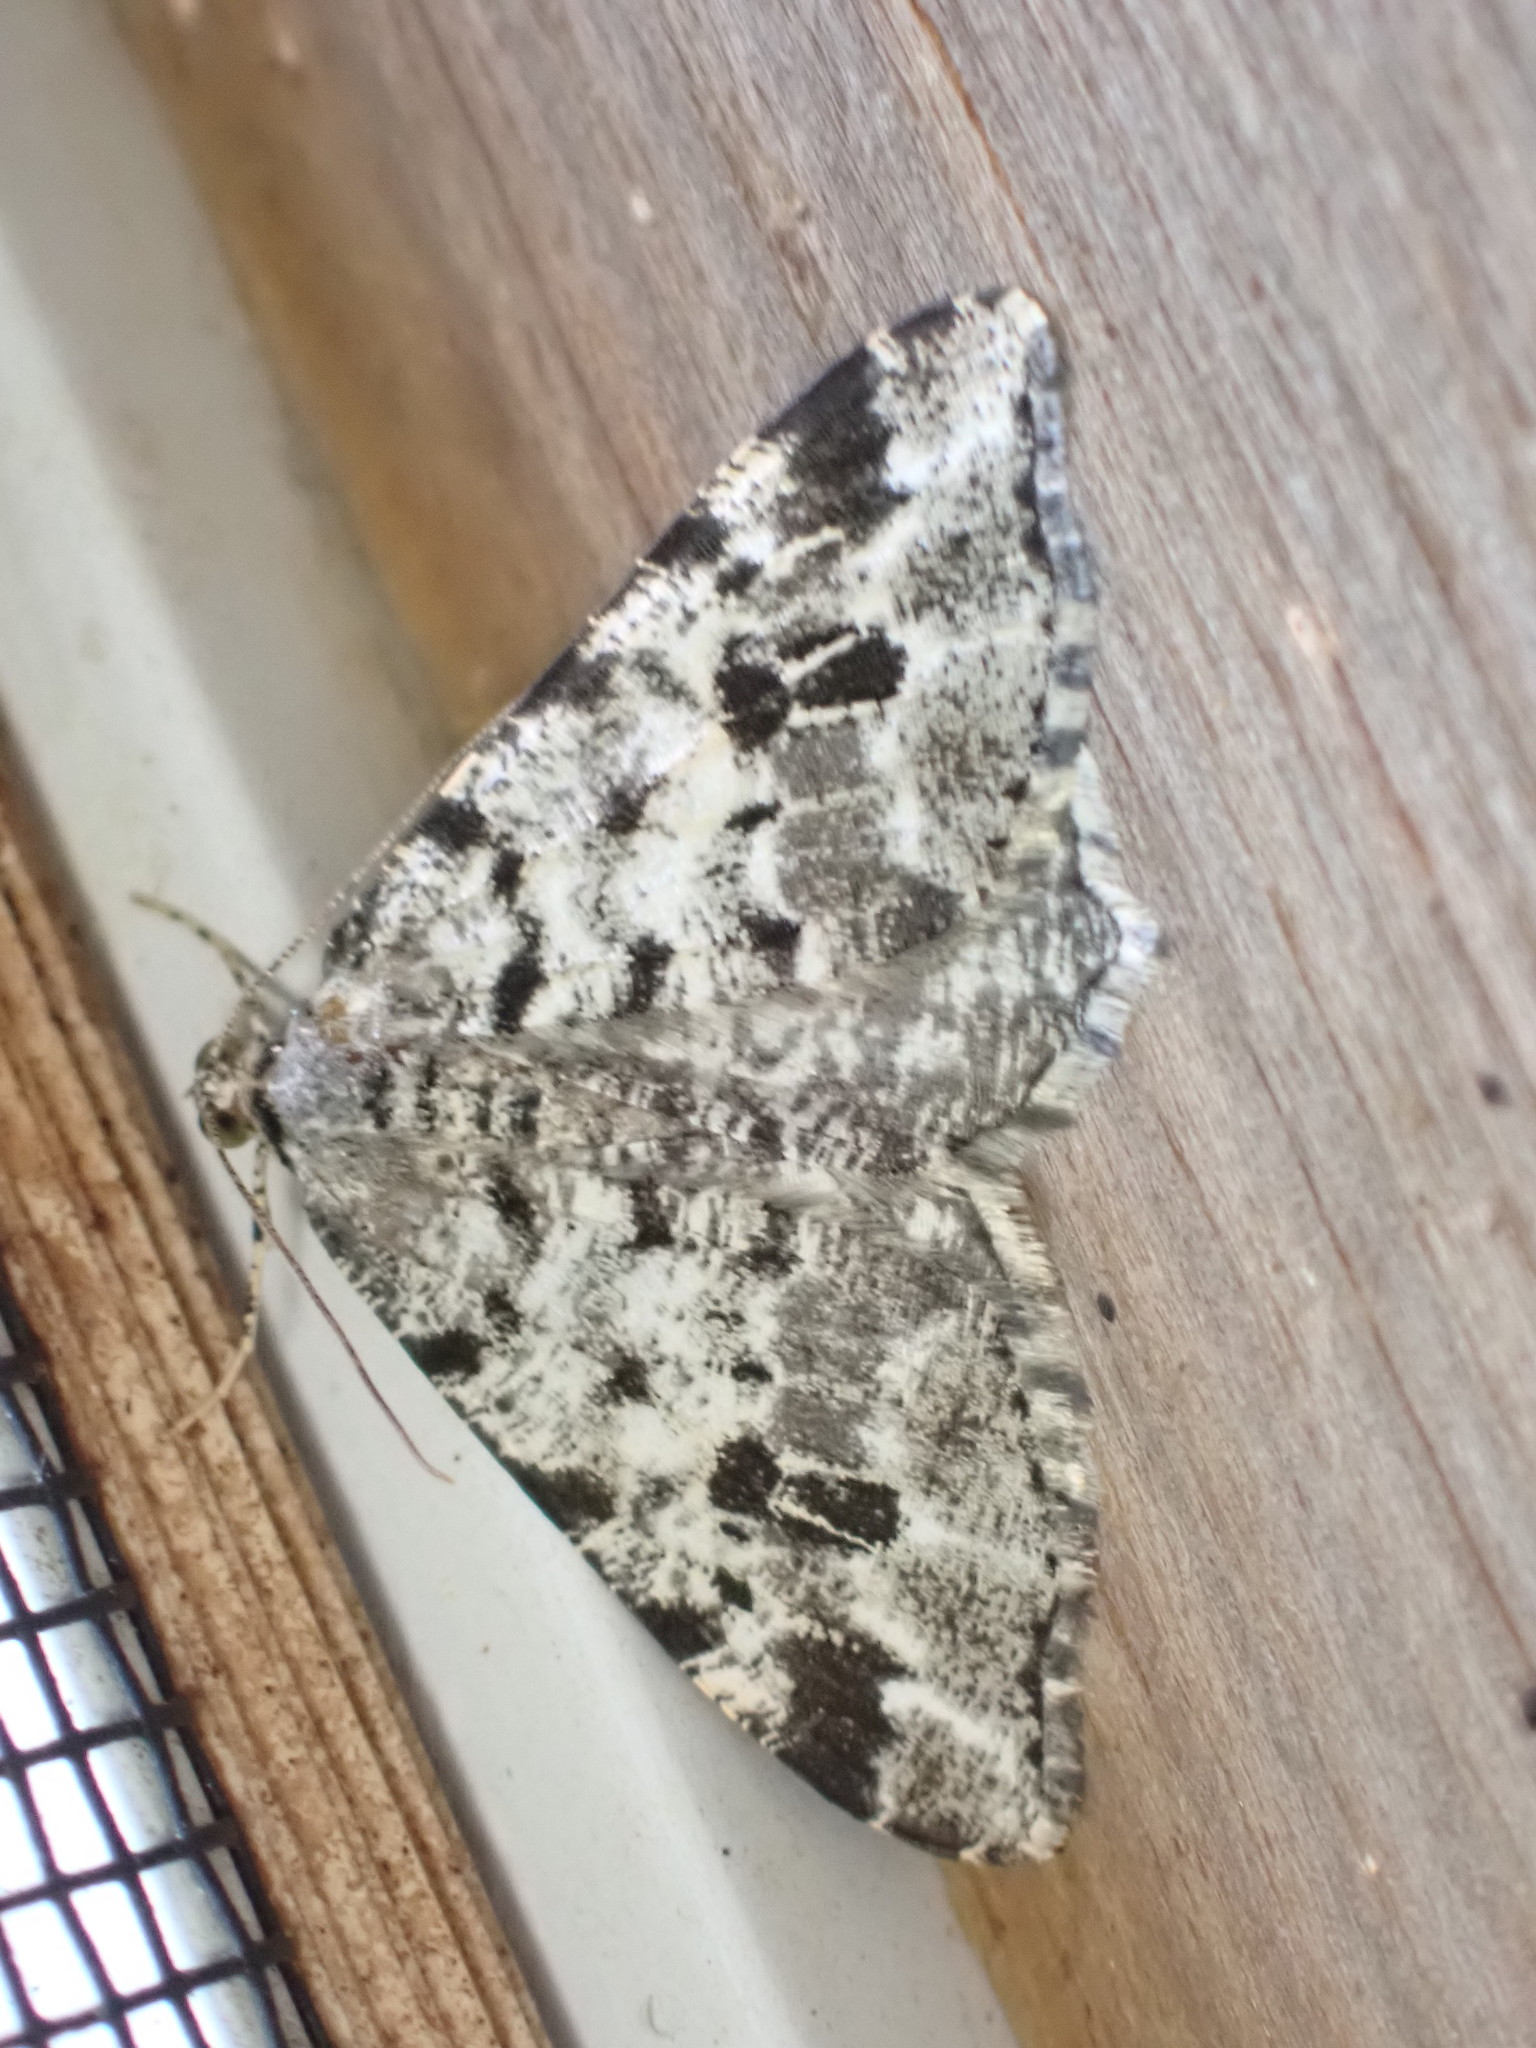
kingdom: Animalia
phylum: Arthropoda
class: Insecta
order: Lepidoptera
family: Geometridae
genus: Macaria
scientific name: Macaria oweni
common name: Owen's angle
